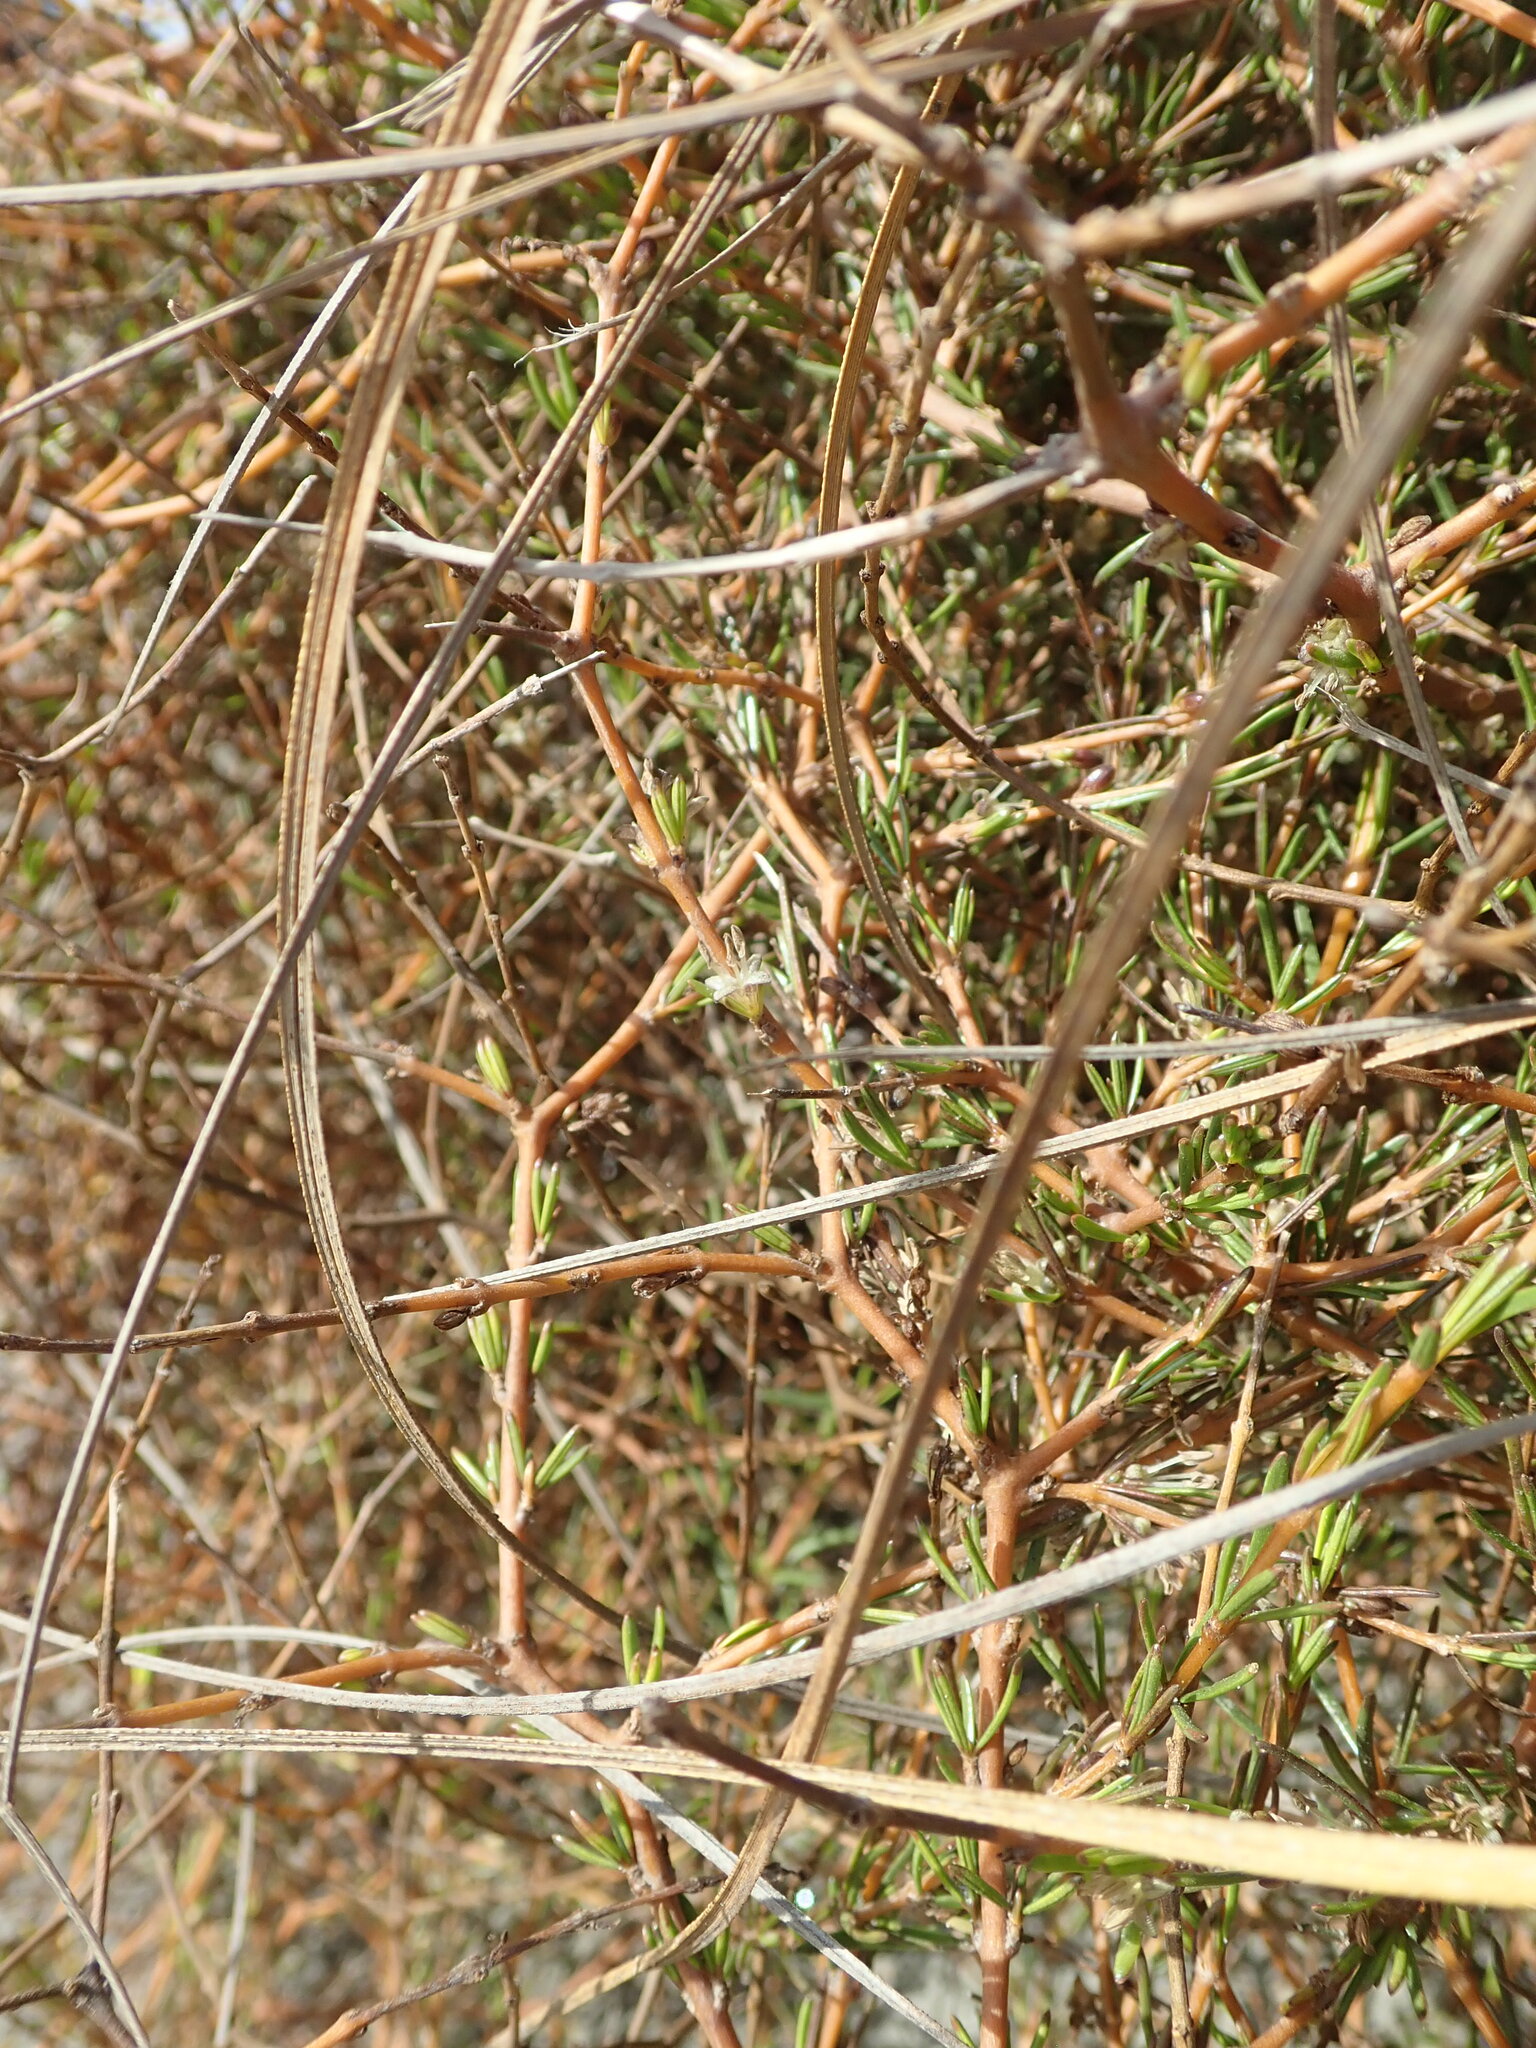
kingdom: Plantae
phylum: Tracheophyta
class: Magnoliopsida
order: Gentianales
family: Rubiaceae
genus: Coprosma
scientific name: Coprosma acerosa
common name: Sand coprosma
